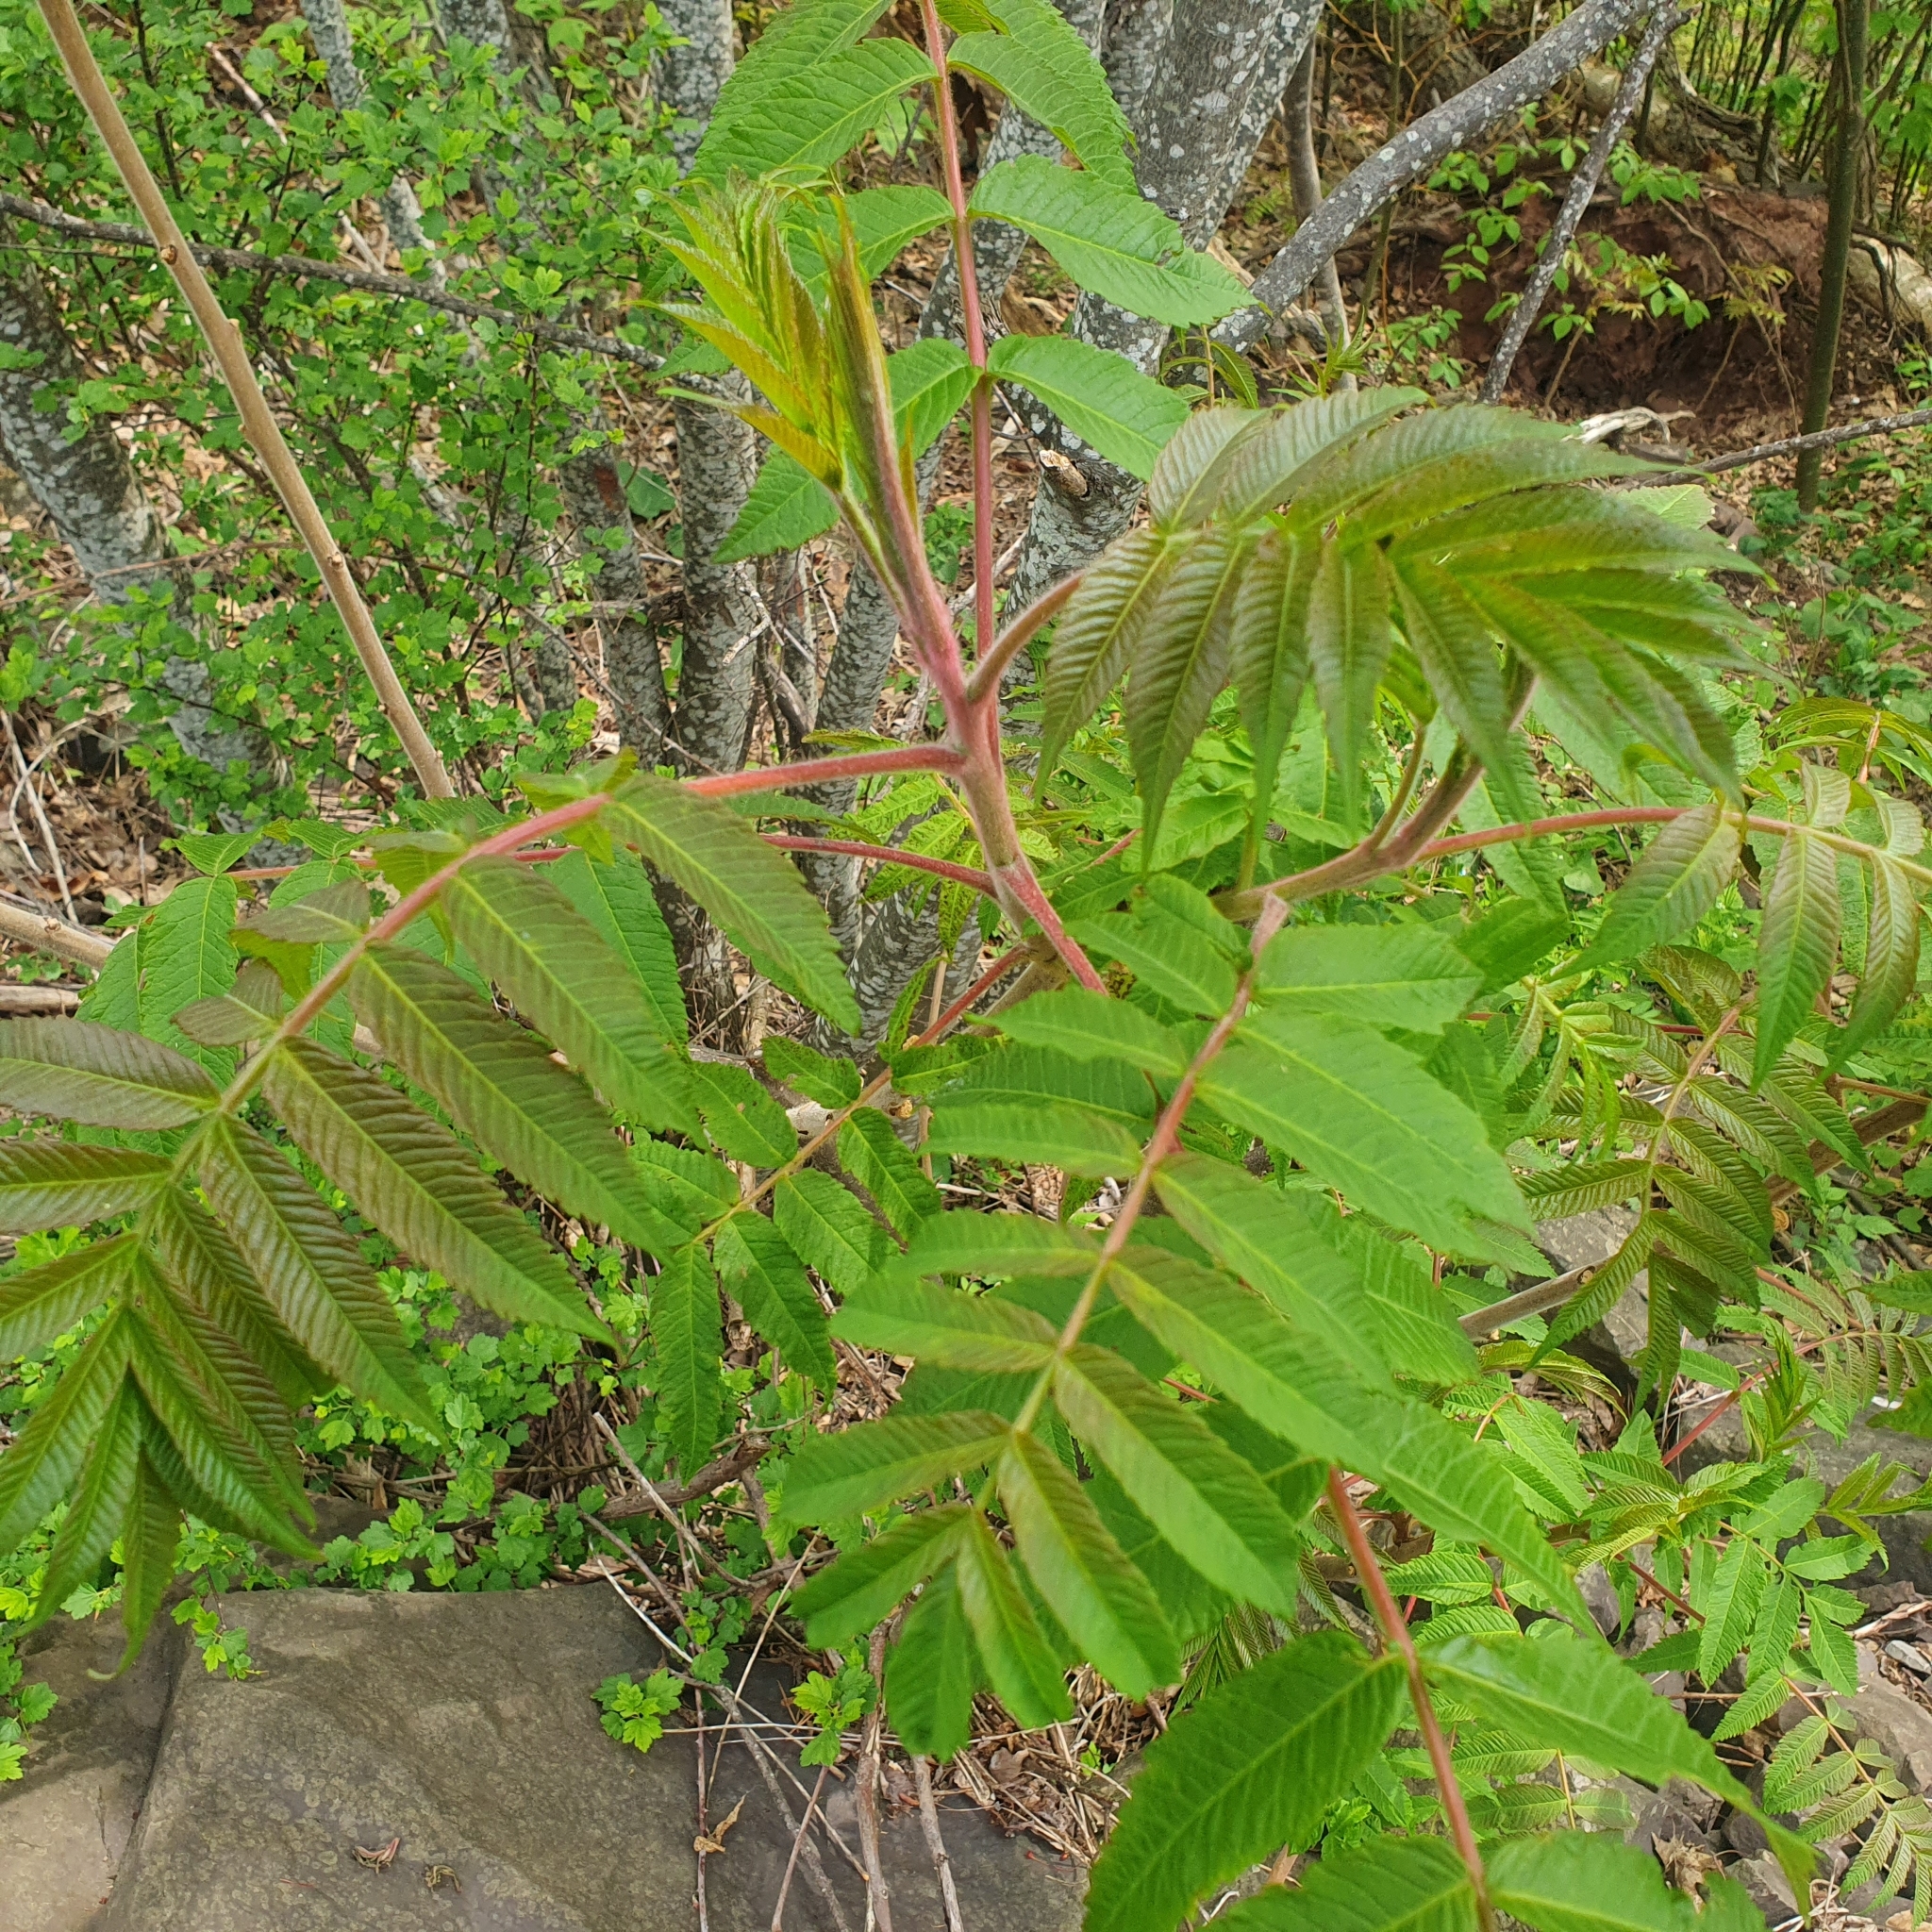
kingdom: Plantae
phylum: Tracheophyta
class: Magnoliopsida
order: Sapindales
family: Anacardiaceae
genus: Rhus
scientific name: Rhus typhina
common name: Staghorn sumac
